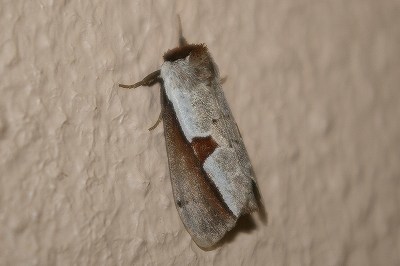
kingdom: Animalia
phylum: Arthropoda
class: Insecta
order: Lepidoptera
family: Notodontidae
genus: Nerice
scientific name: Nerice bipartita
